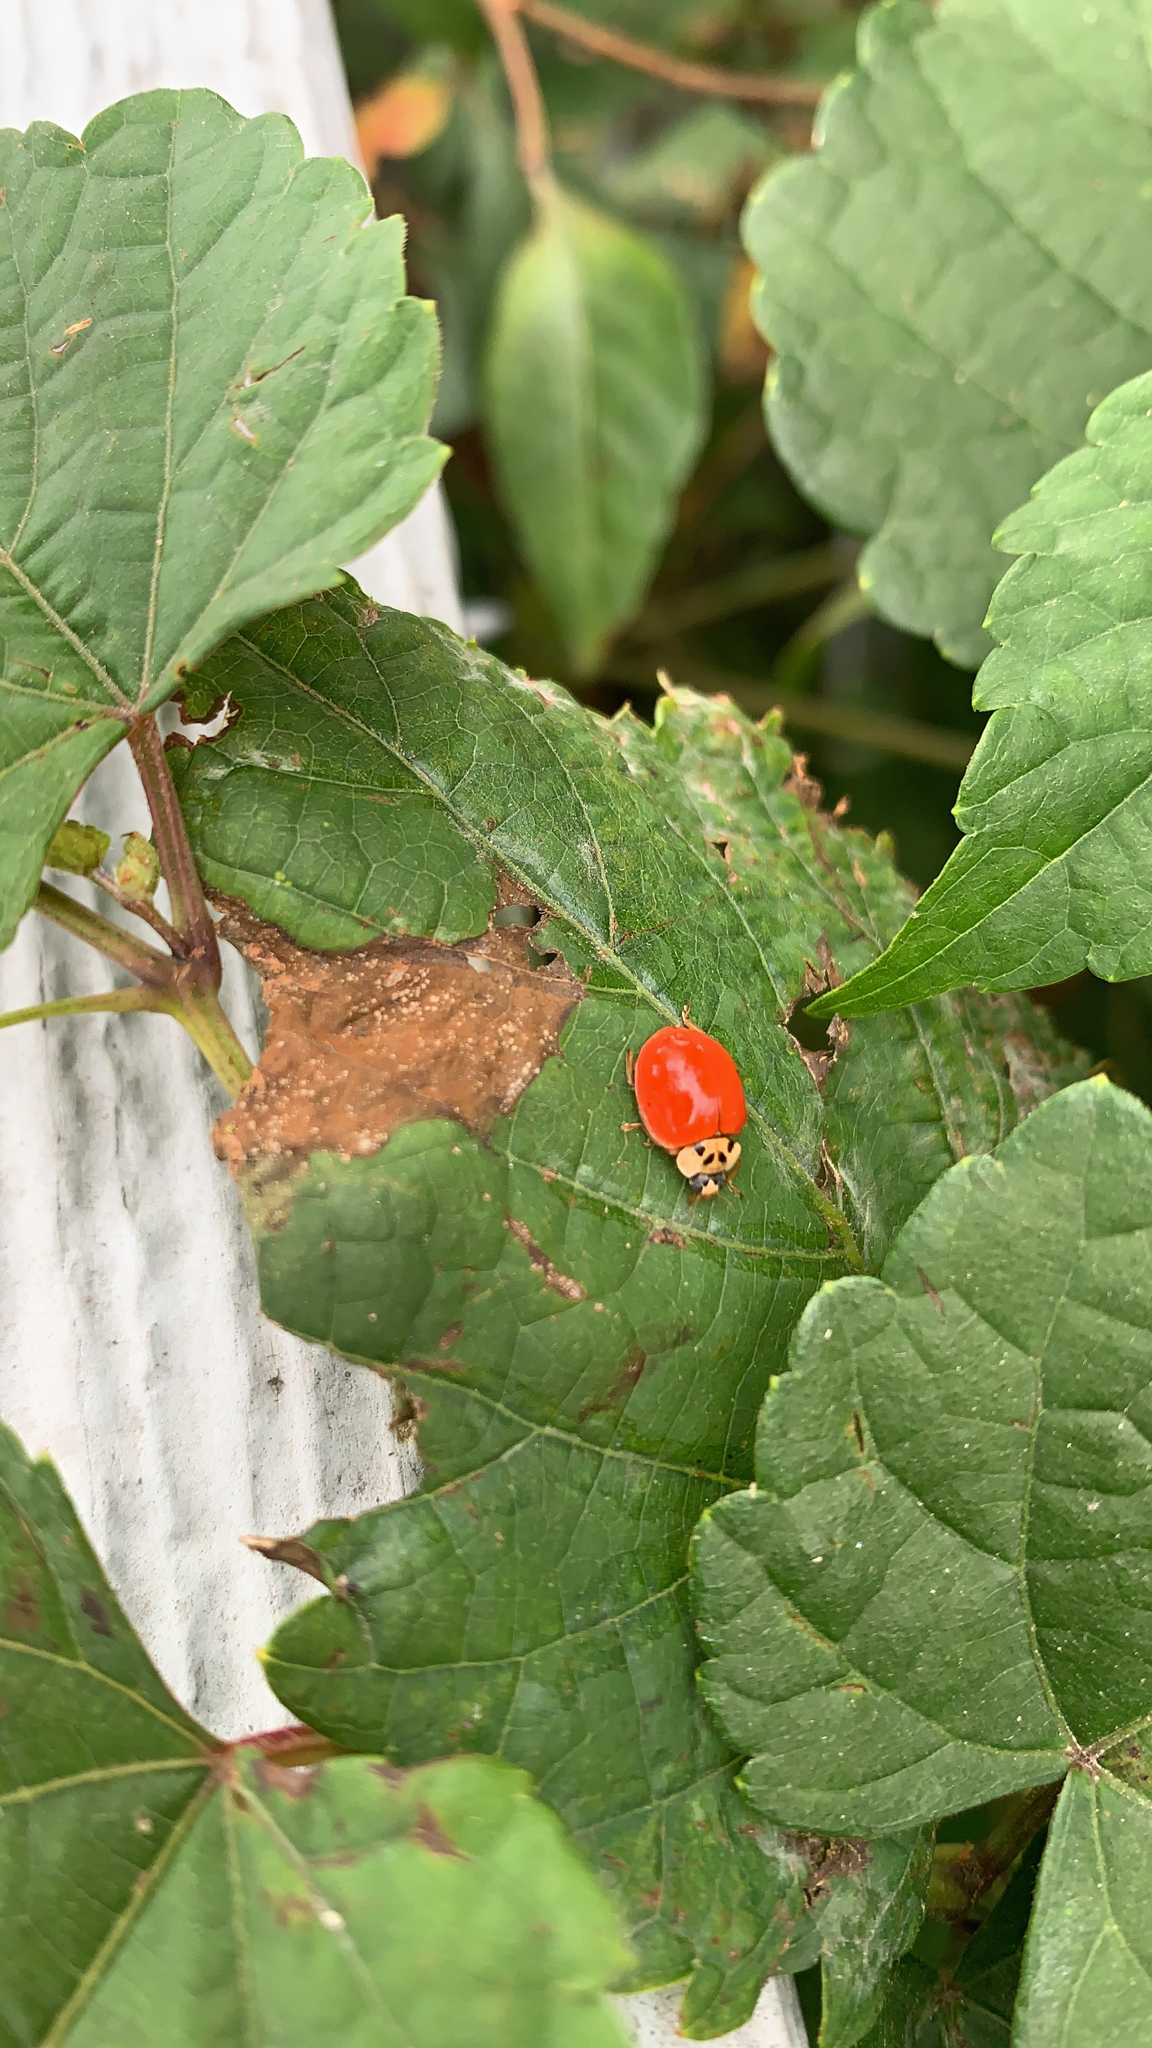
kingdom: Animalia
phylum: Arthropoda
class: Insecta
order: Coleoptera
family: Coccinellidae
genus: Harmonia
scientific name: Harmonia axyridis
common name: Harlequin ladybird
